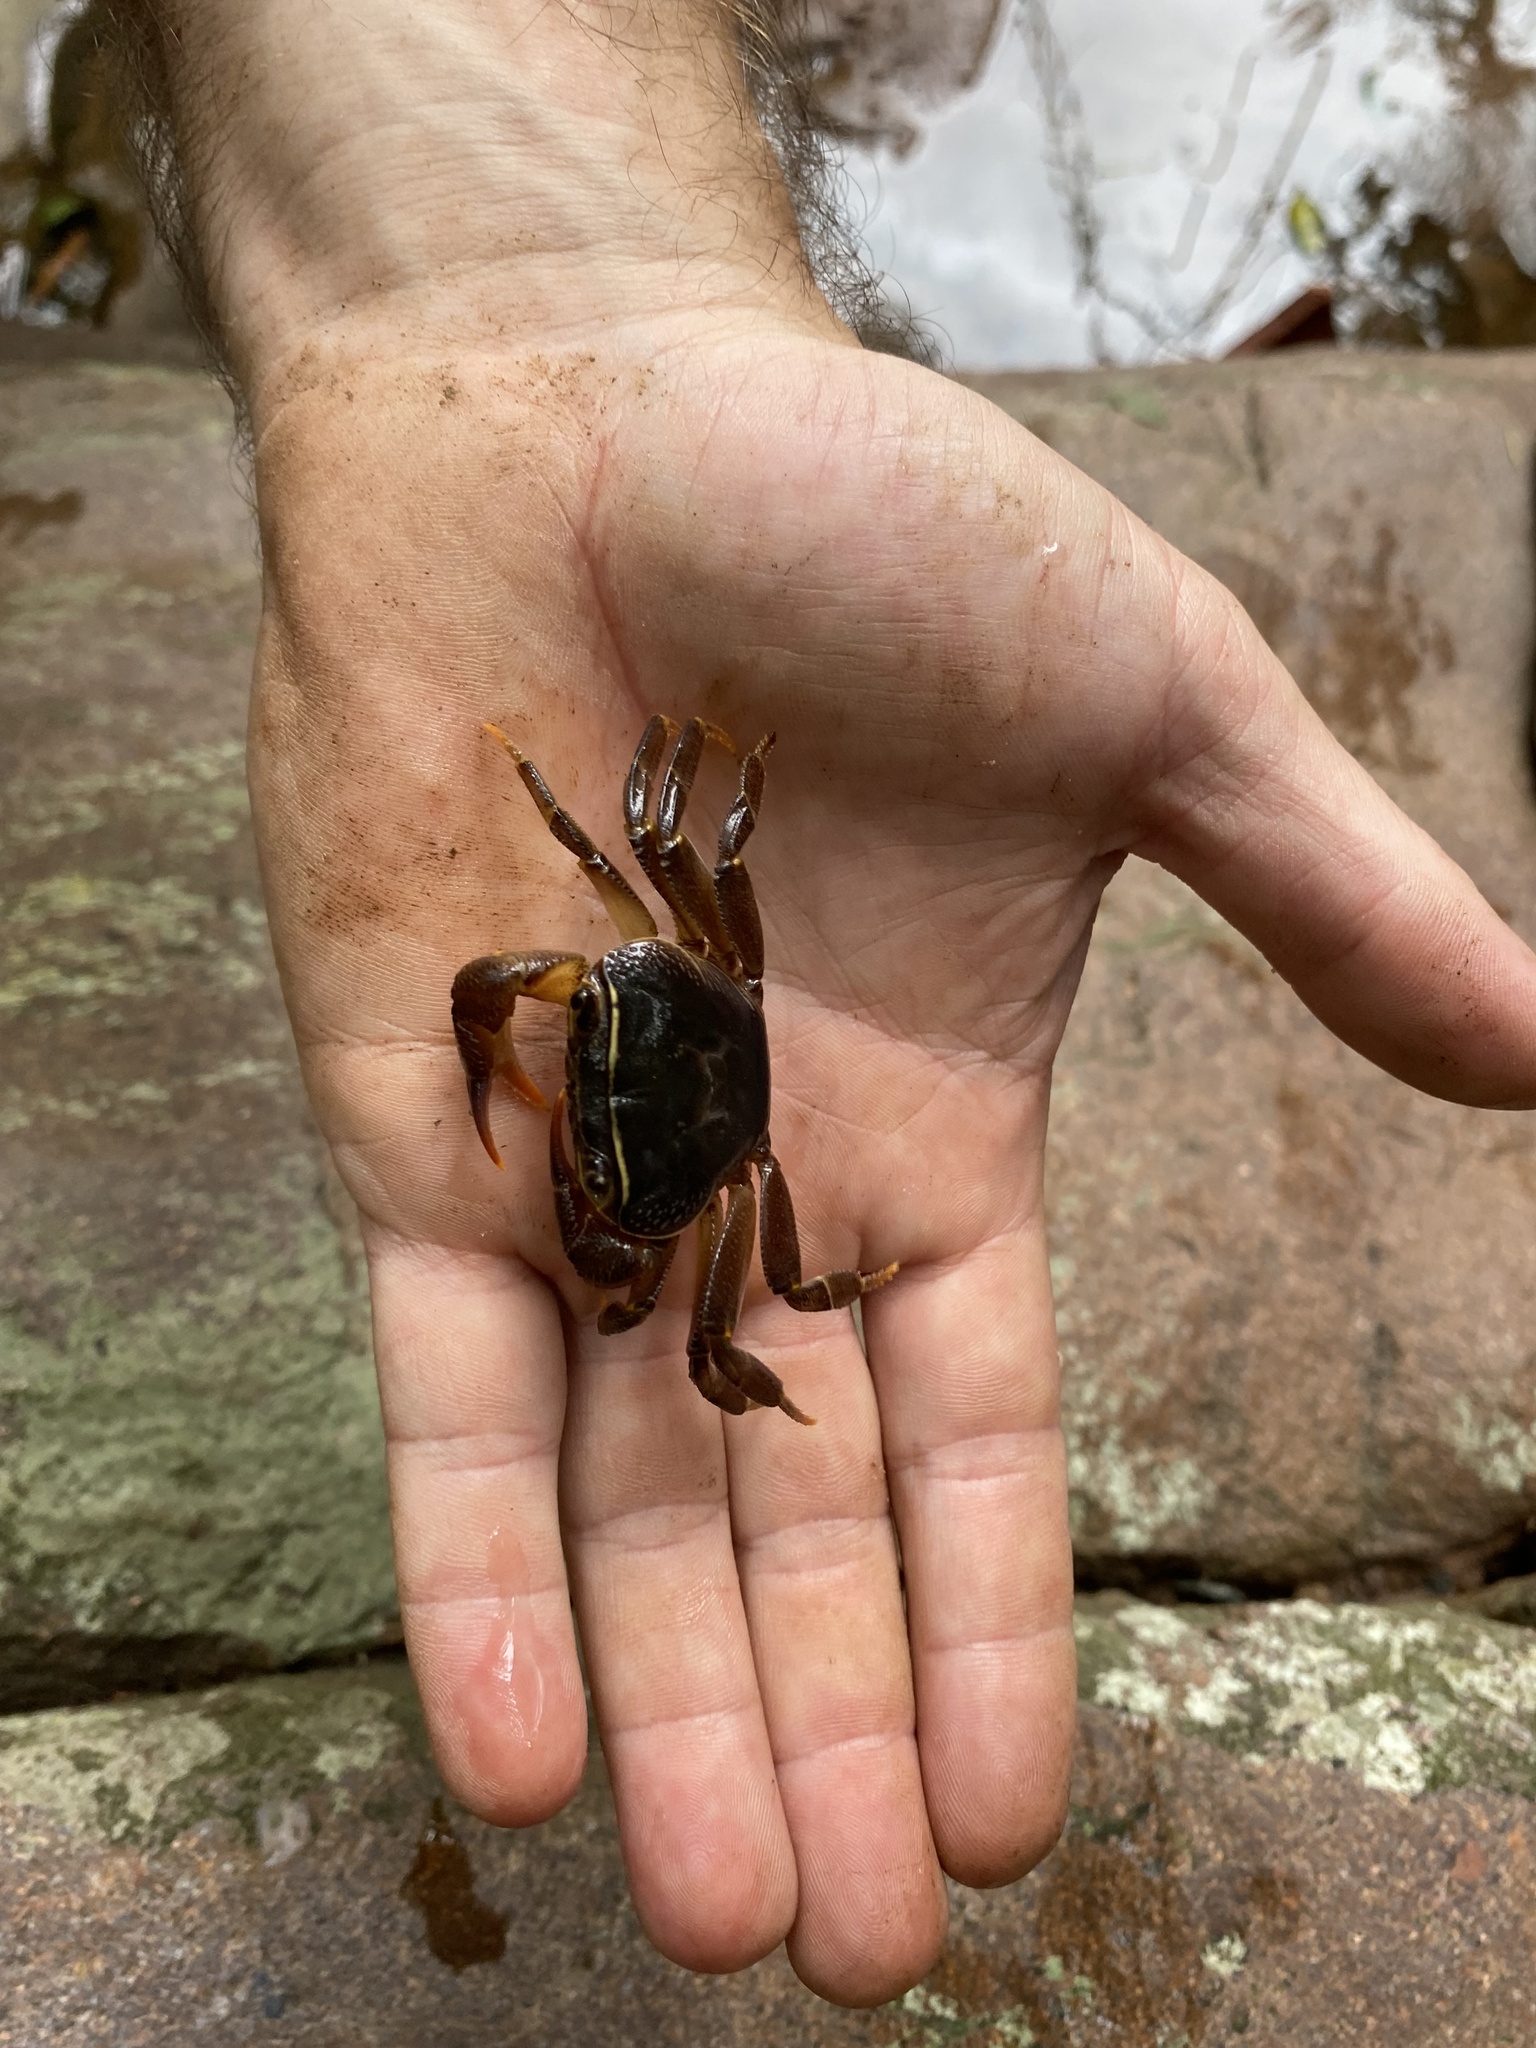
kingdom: Animalia
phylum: Arthropoda
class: Malacostraca
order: Decapoda
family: Potamonautidae
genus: Potamonautes
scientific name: Potamonautes sidneyi
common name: Natal river crab
